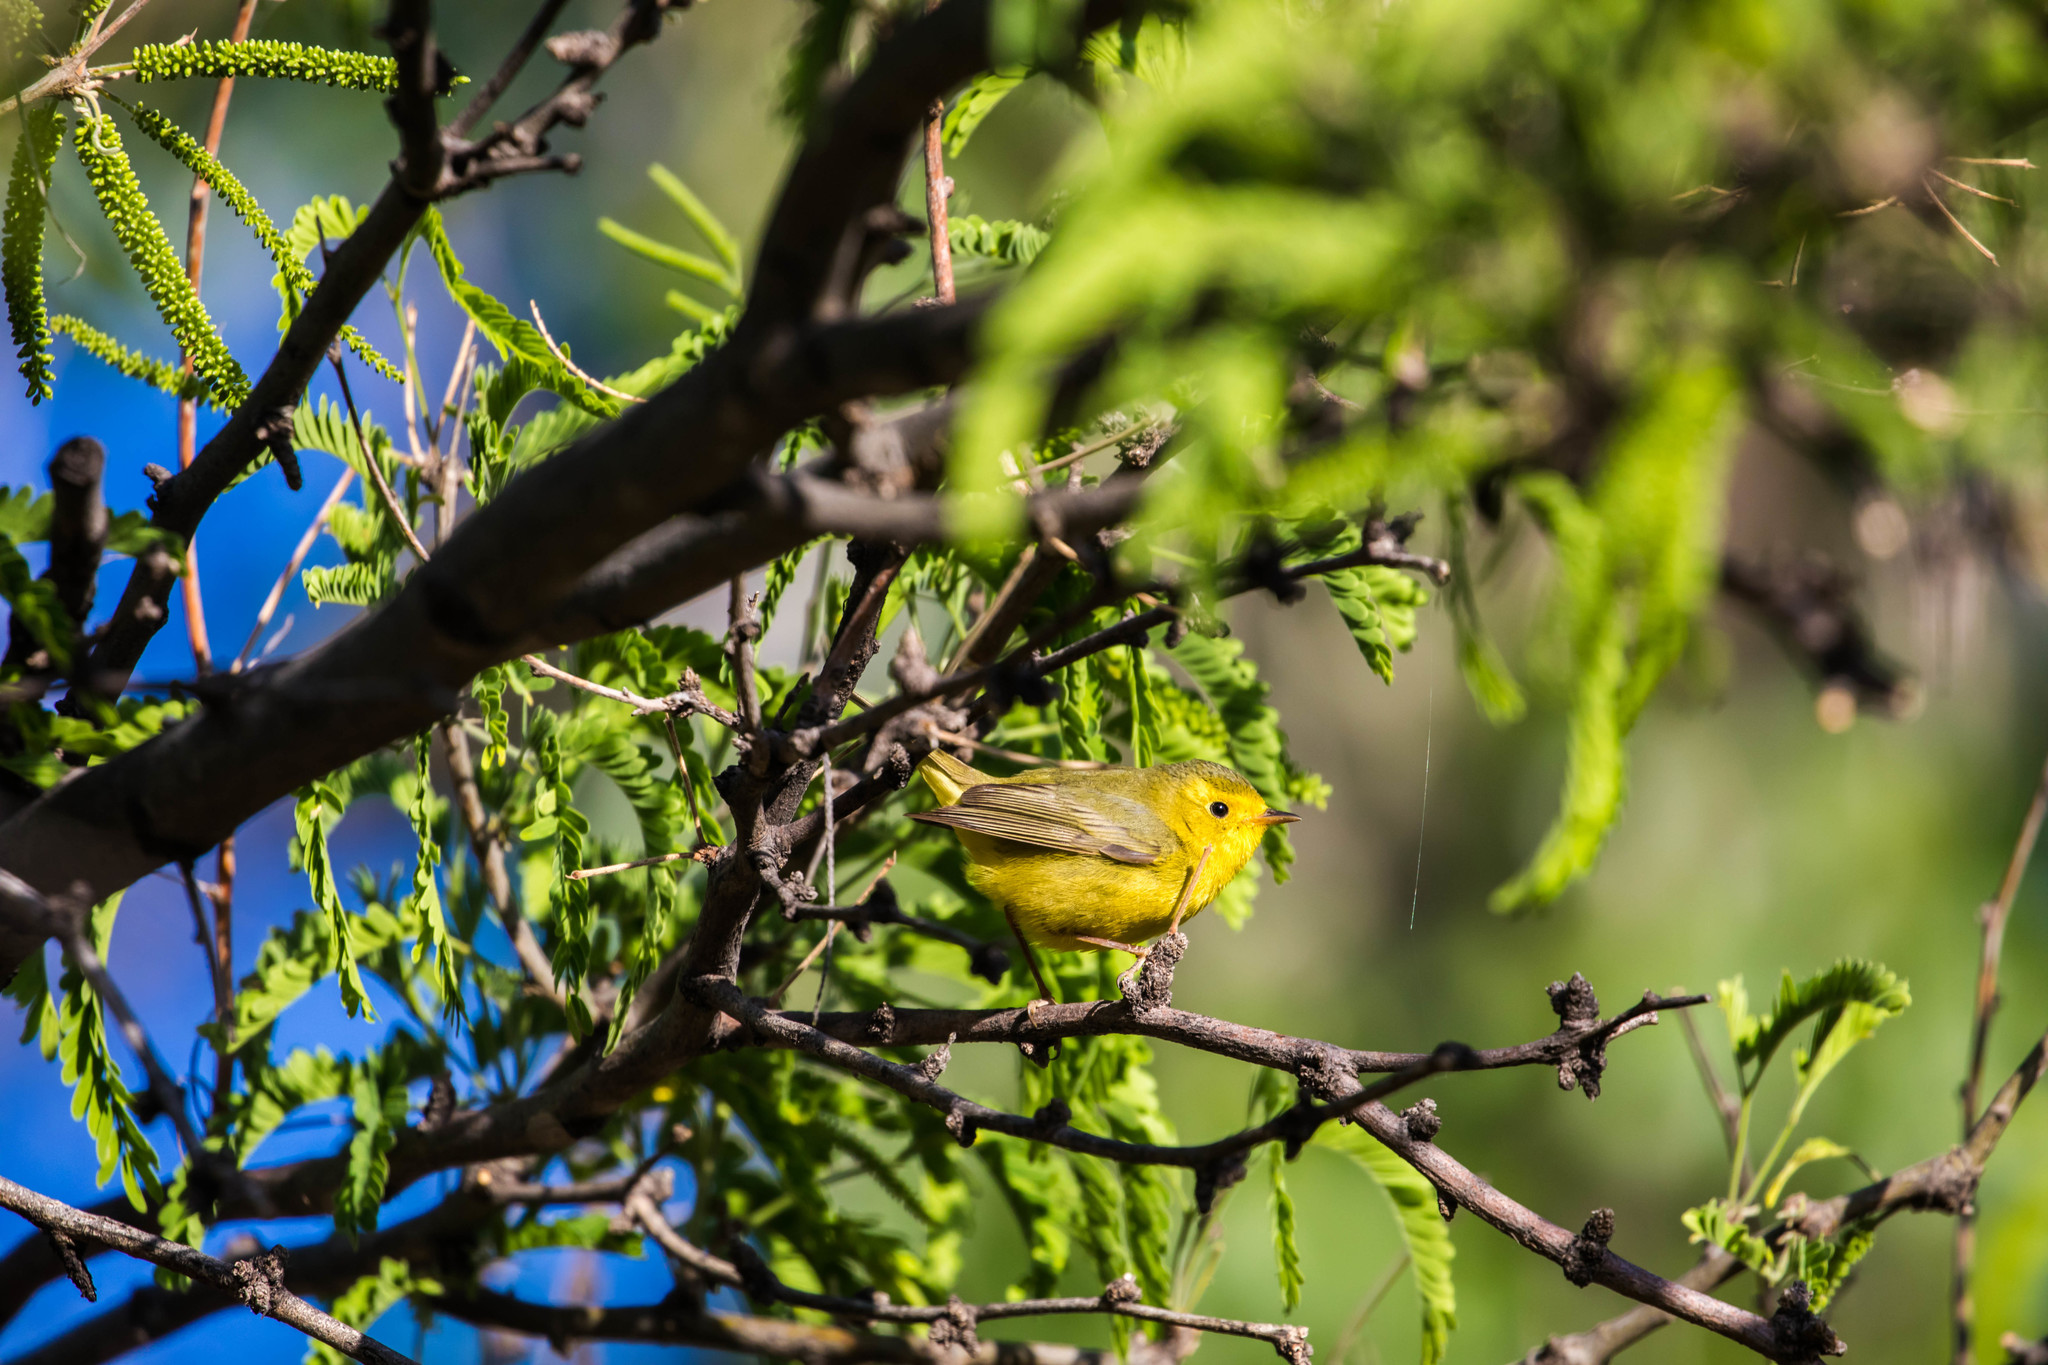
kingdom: Animalia
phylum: Chordata
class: Aves
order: Passeriformes
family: Parulidae
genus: Cardellina
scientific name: Cardellina pusilla
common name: Wilson's warbler
